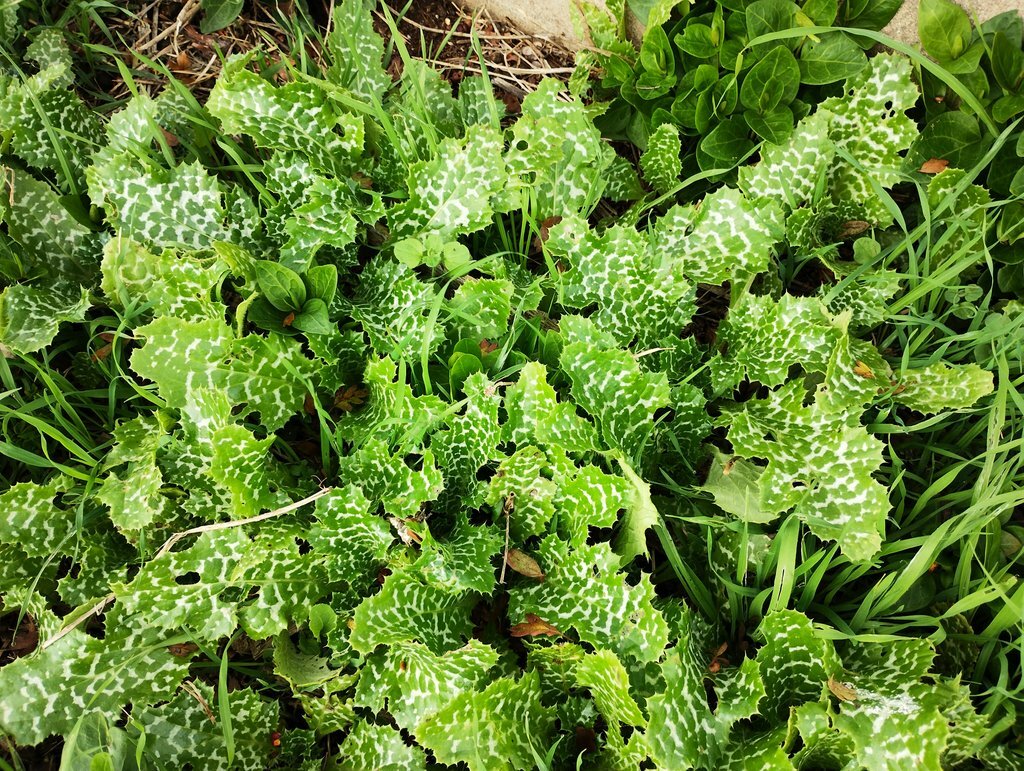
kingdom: Plantae
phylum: Tracheophyta
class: Magnoliopsida
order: Asterales
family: Asteraceae
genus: Silybum
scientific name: Silybum marianum
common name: Milk thistle
